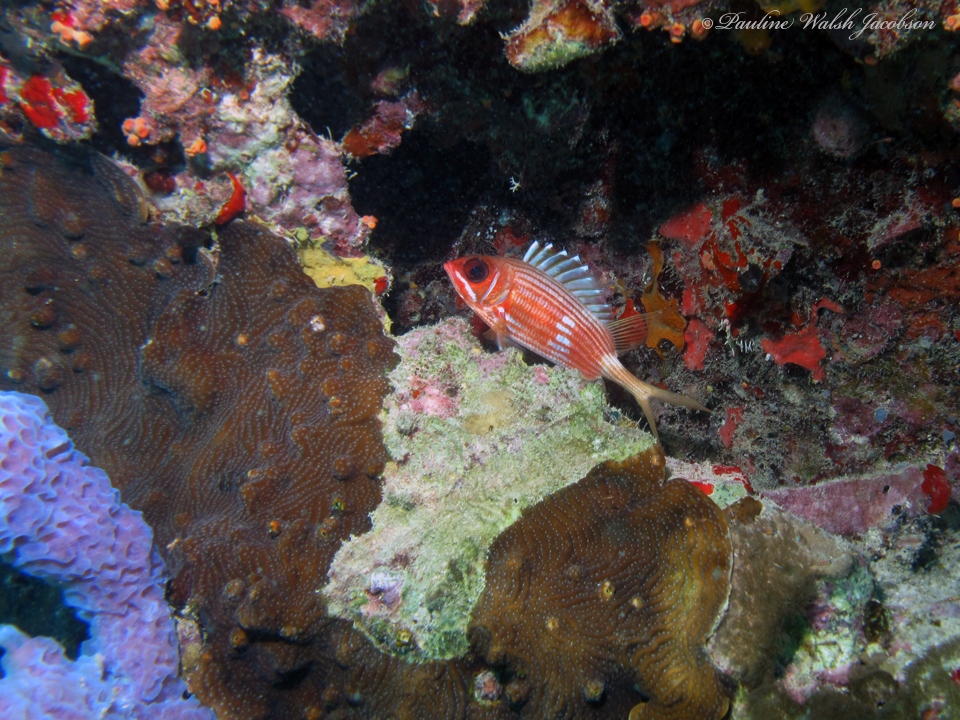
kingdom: Animalia
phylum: Chordata
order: Beryciformes
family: Holocentridae
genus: Holocentrus
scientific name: Holocentrus rufus
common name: Longspine squirrelfish
